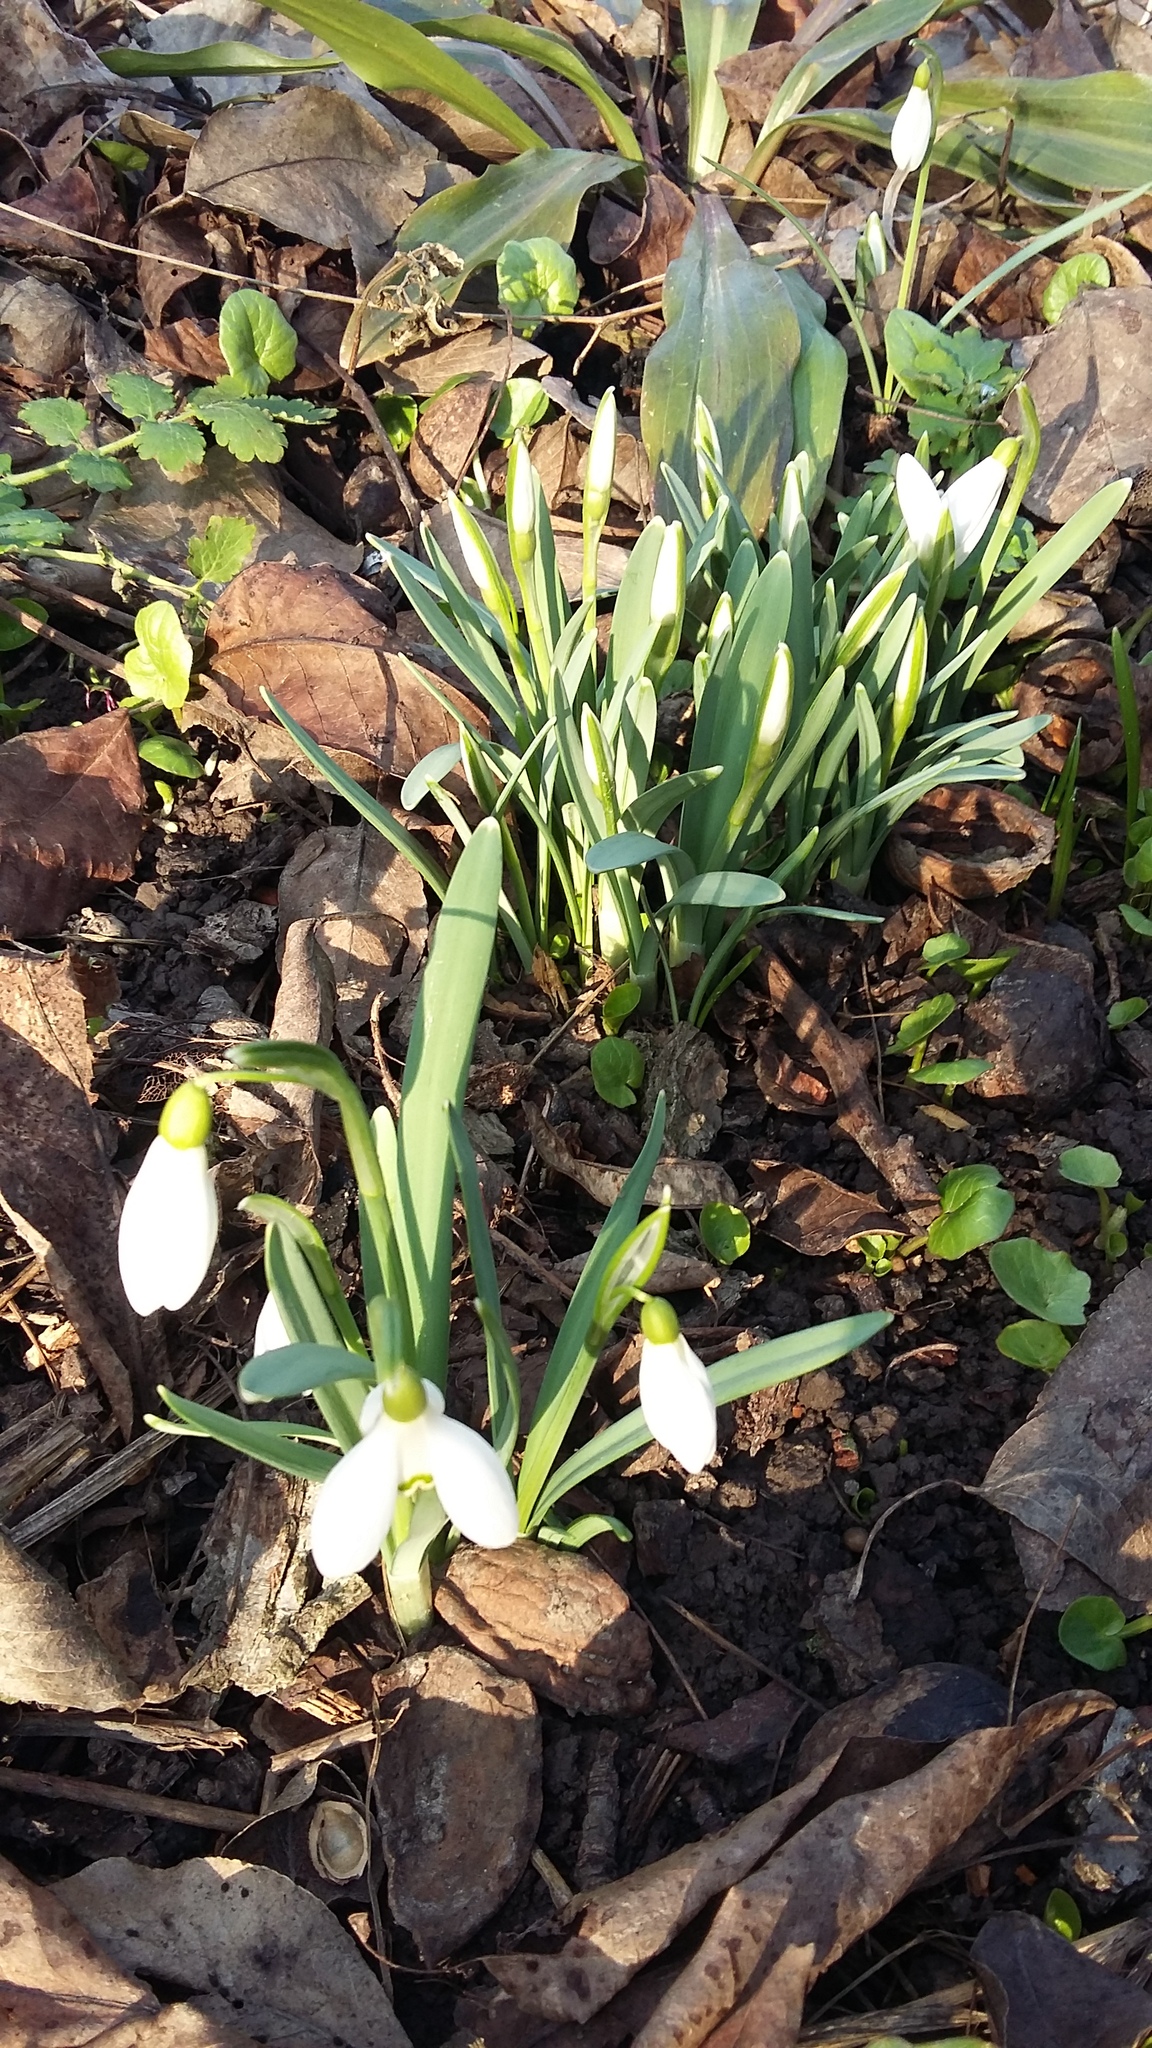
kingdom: Plantae
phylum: Tracheophyta
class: Liliopsida
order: Asparagales
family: Amaryllidaceae
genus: Galanthus
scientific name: Galanthus nivalis
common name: Snowdrop
